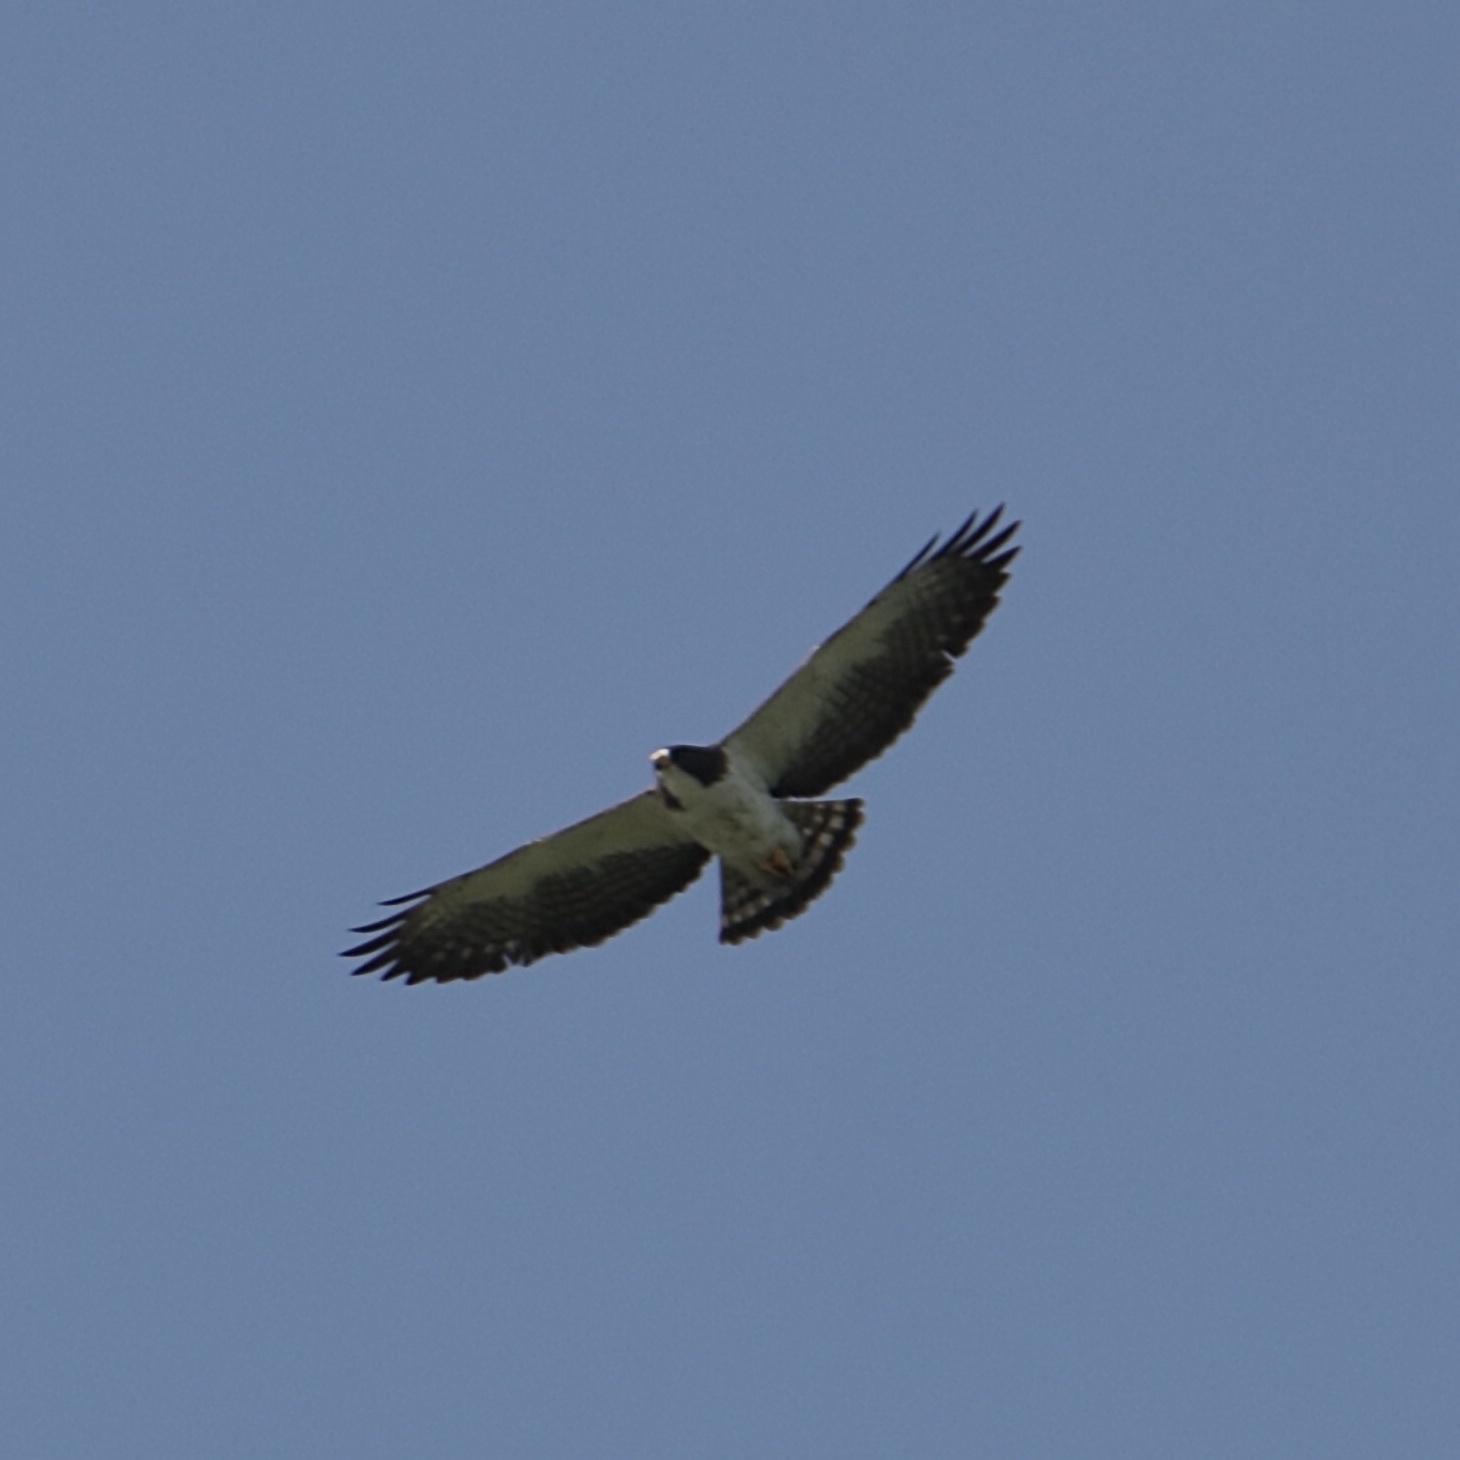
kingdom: Animalia
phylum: Chordata
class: Aves
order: Accipitriformes
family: Accipitridae
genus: Buteo
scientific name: Buteo brachyurus
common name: Short-tailed hawk
